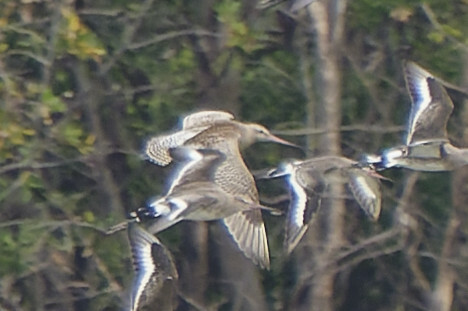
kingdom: Animalia
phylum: Chordata
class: Aves
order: Charadriiformes
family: Scolopacidae
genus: Limosa
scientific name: Limosa lapponica
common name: Bar-tailed godwit
